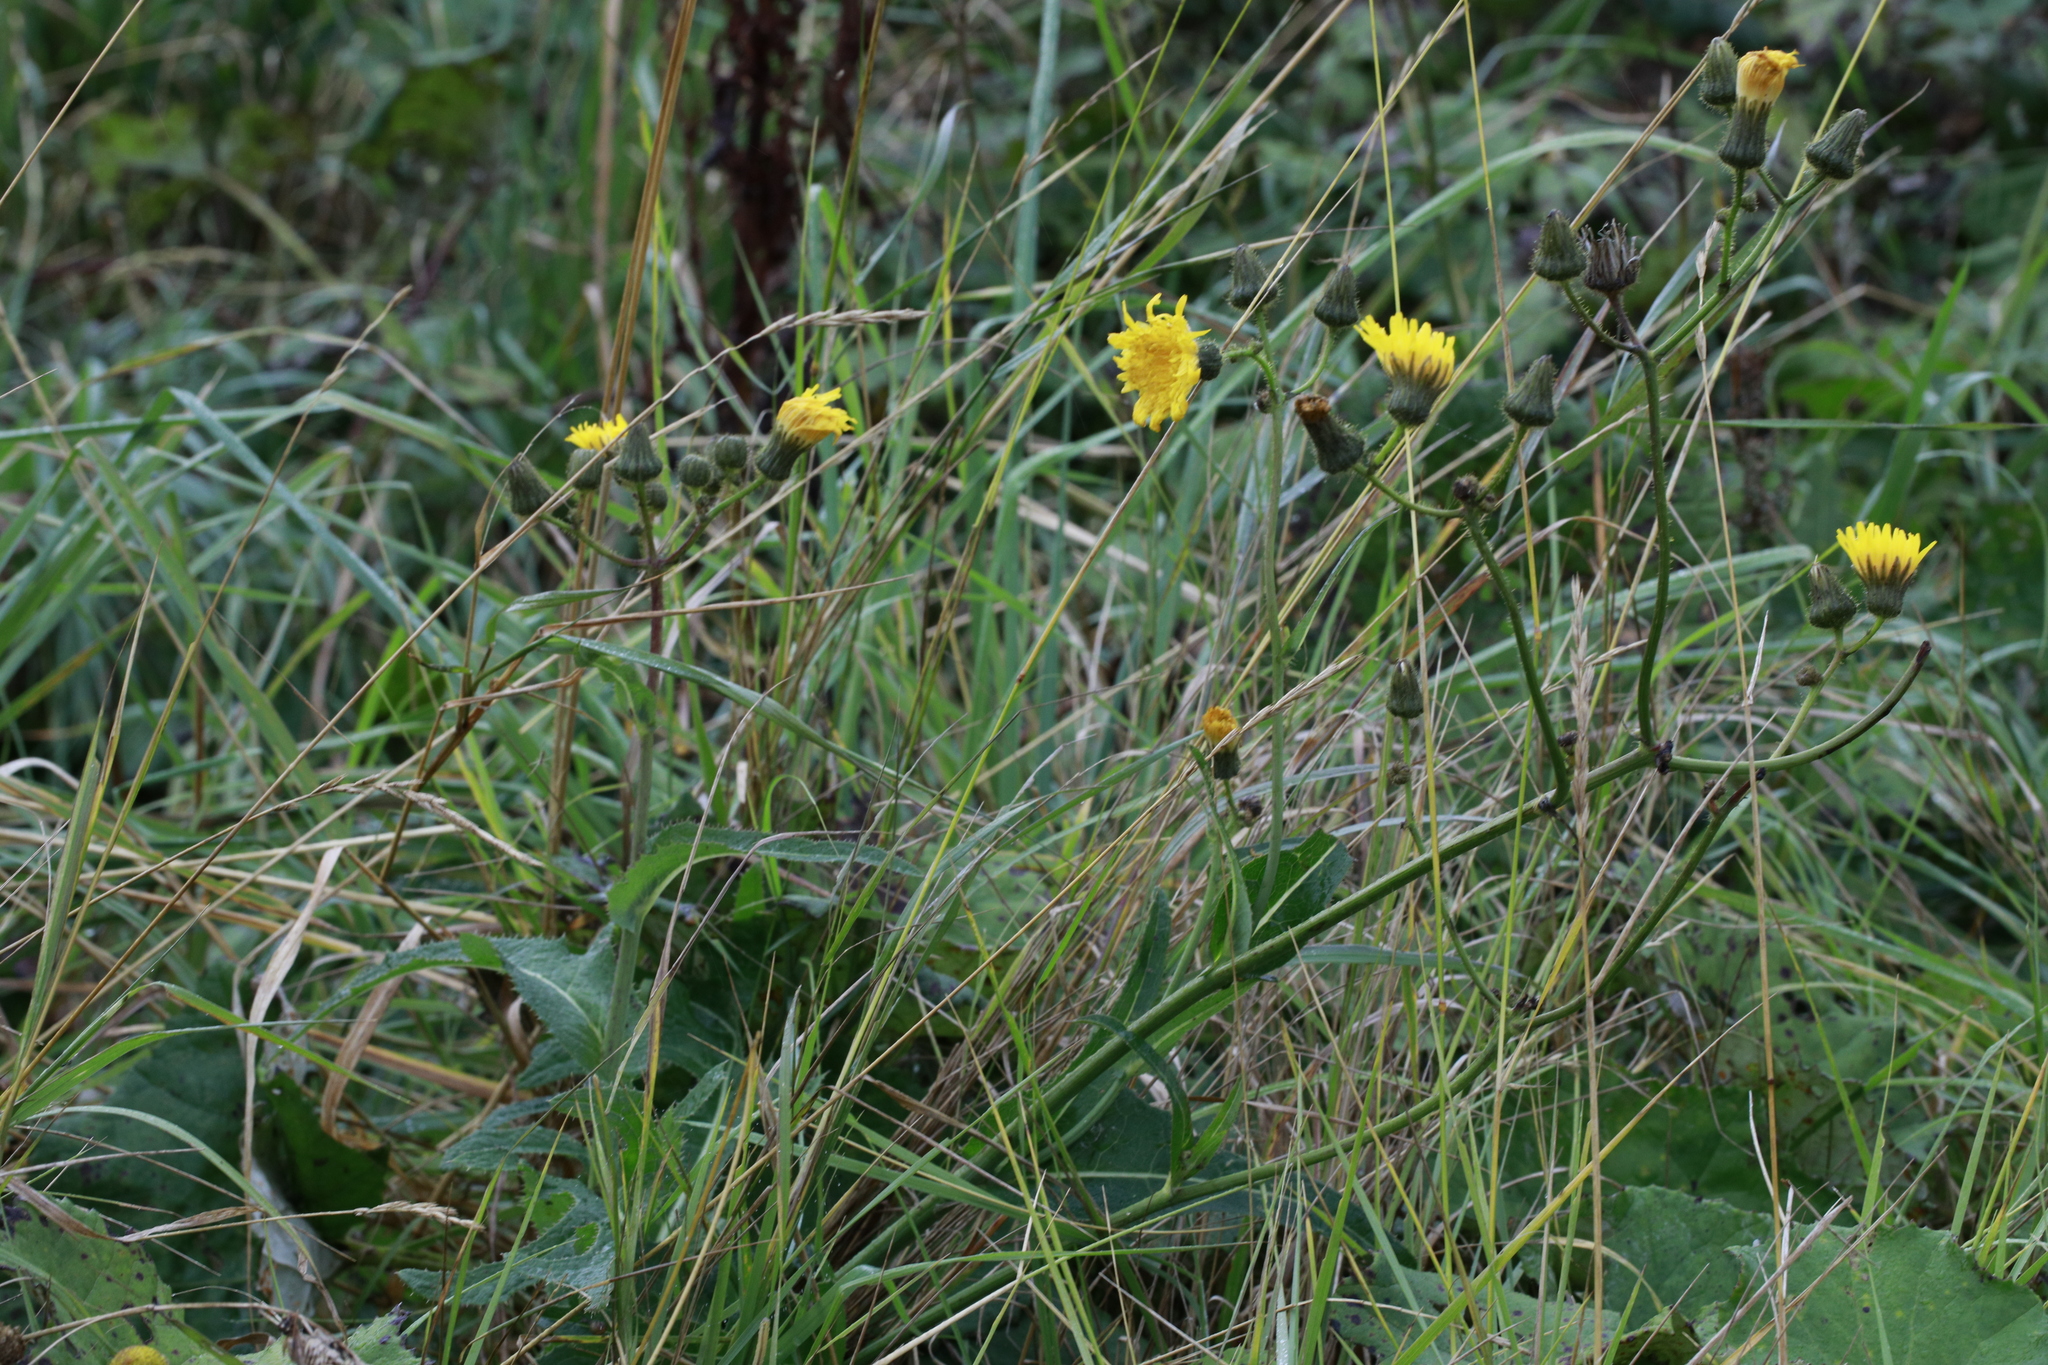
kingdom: Plantae
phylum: Tracheophyta
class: Magnoliopsida
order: Asterales
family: Asteraceae
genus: Sonchus
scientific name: Sonchus arvensis
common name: Perennial sow-thistle
